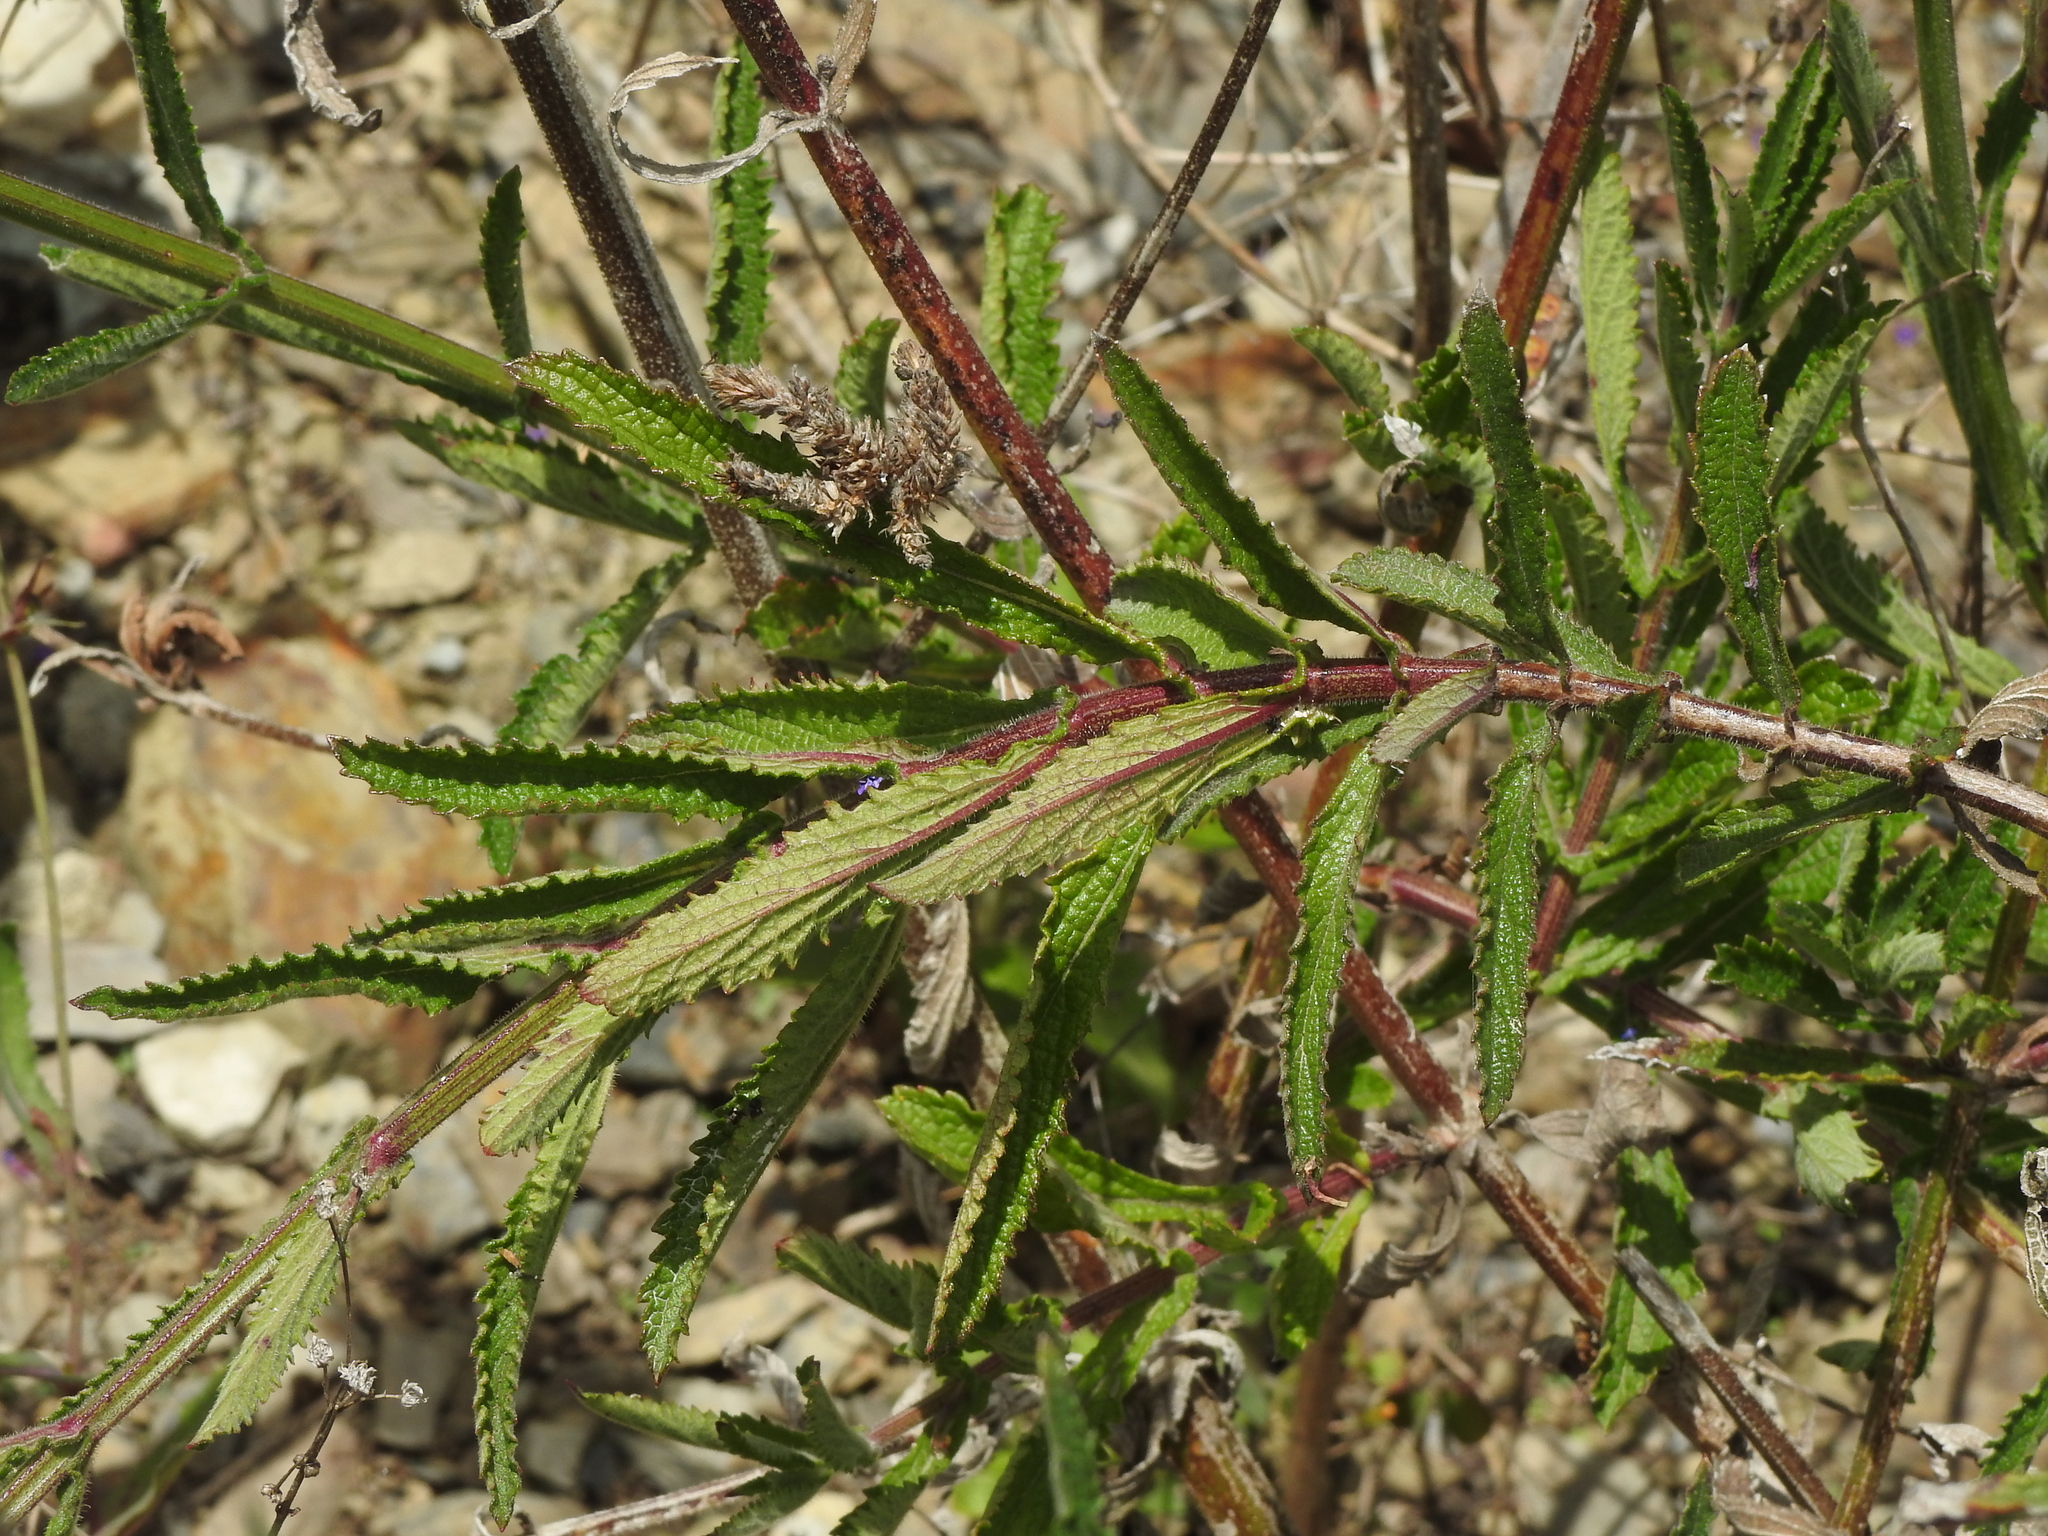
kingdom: Plantae
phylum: Tracheophyta
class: Magnoliopsida
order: Lamiales
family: Verbenaceae
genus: Verbena
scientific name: Verbena bonariensis
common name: Purpletop vervain
